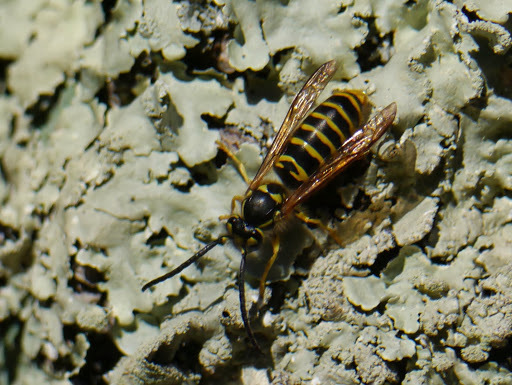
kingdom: Animalia
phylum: Arthropoda
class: Insecta
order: Hymenoptera
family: Vespidae
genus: Vespula
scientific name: Vespula maculifrons
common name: Eastern yellowjacket
